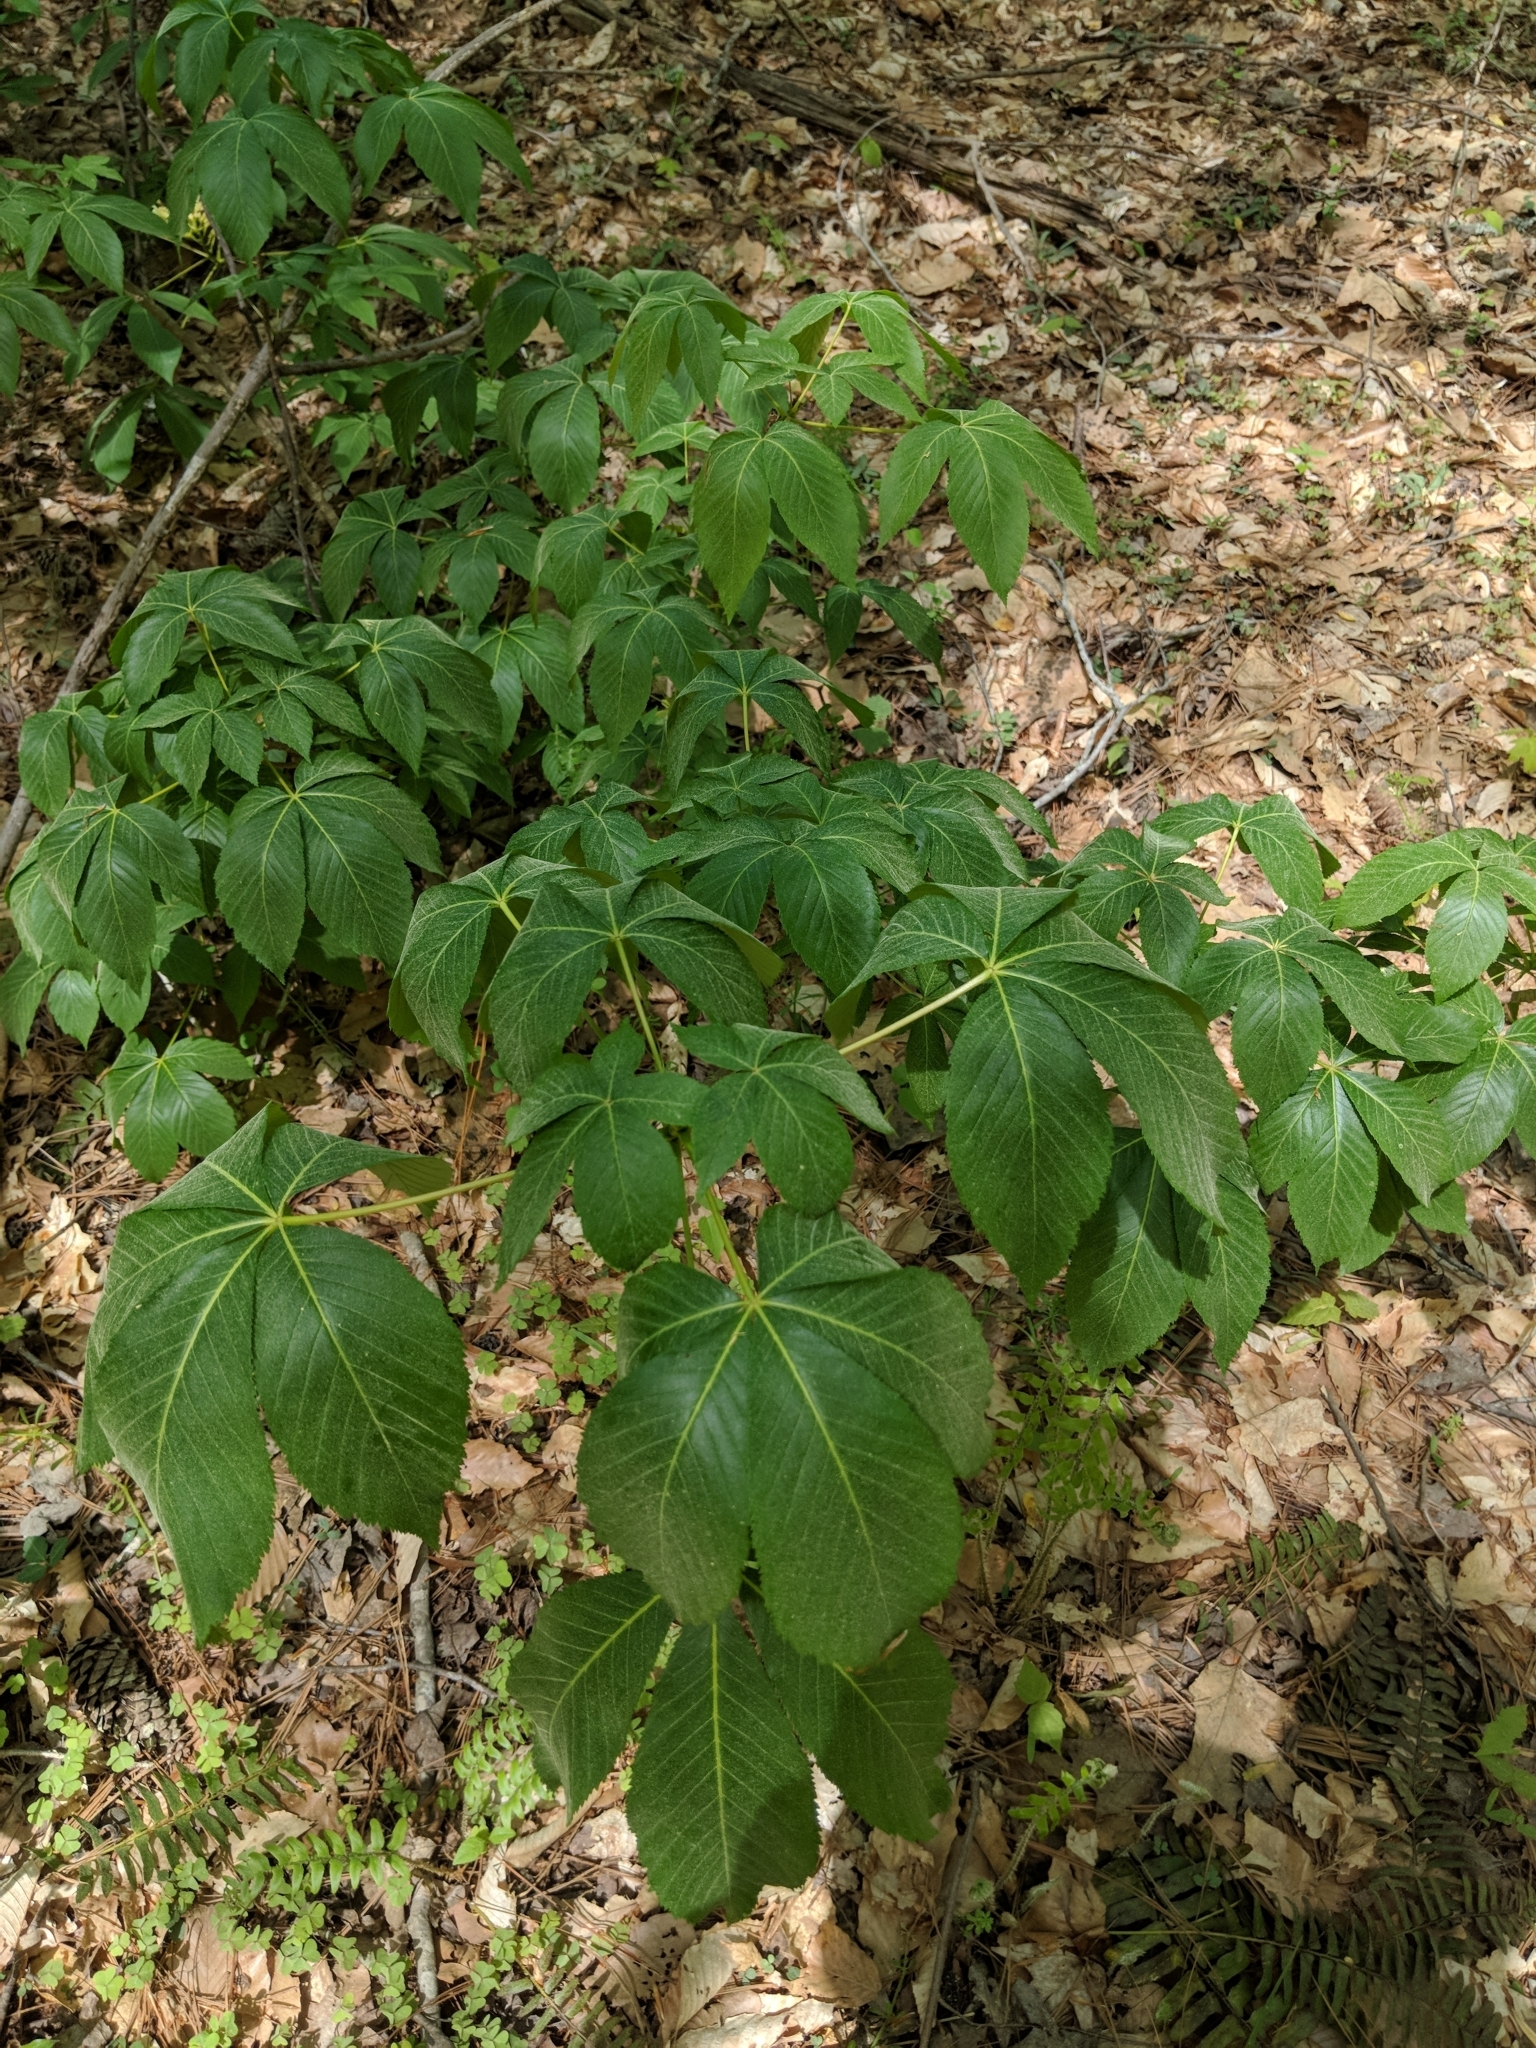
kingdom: Plantae
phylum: Tracheophyta
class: Magnoliopsida
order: Sapindales
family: Sapindaceae
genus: Aesculus
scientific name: Aesculus sylvatica
